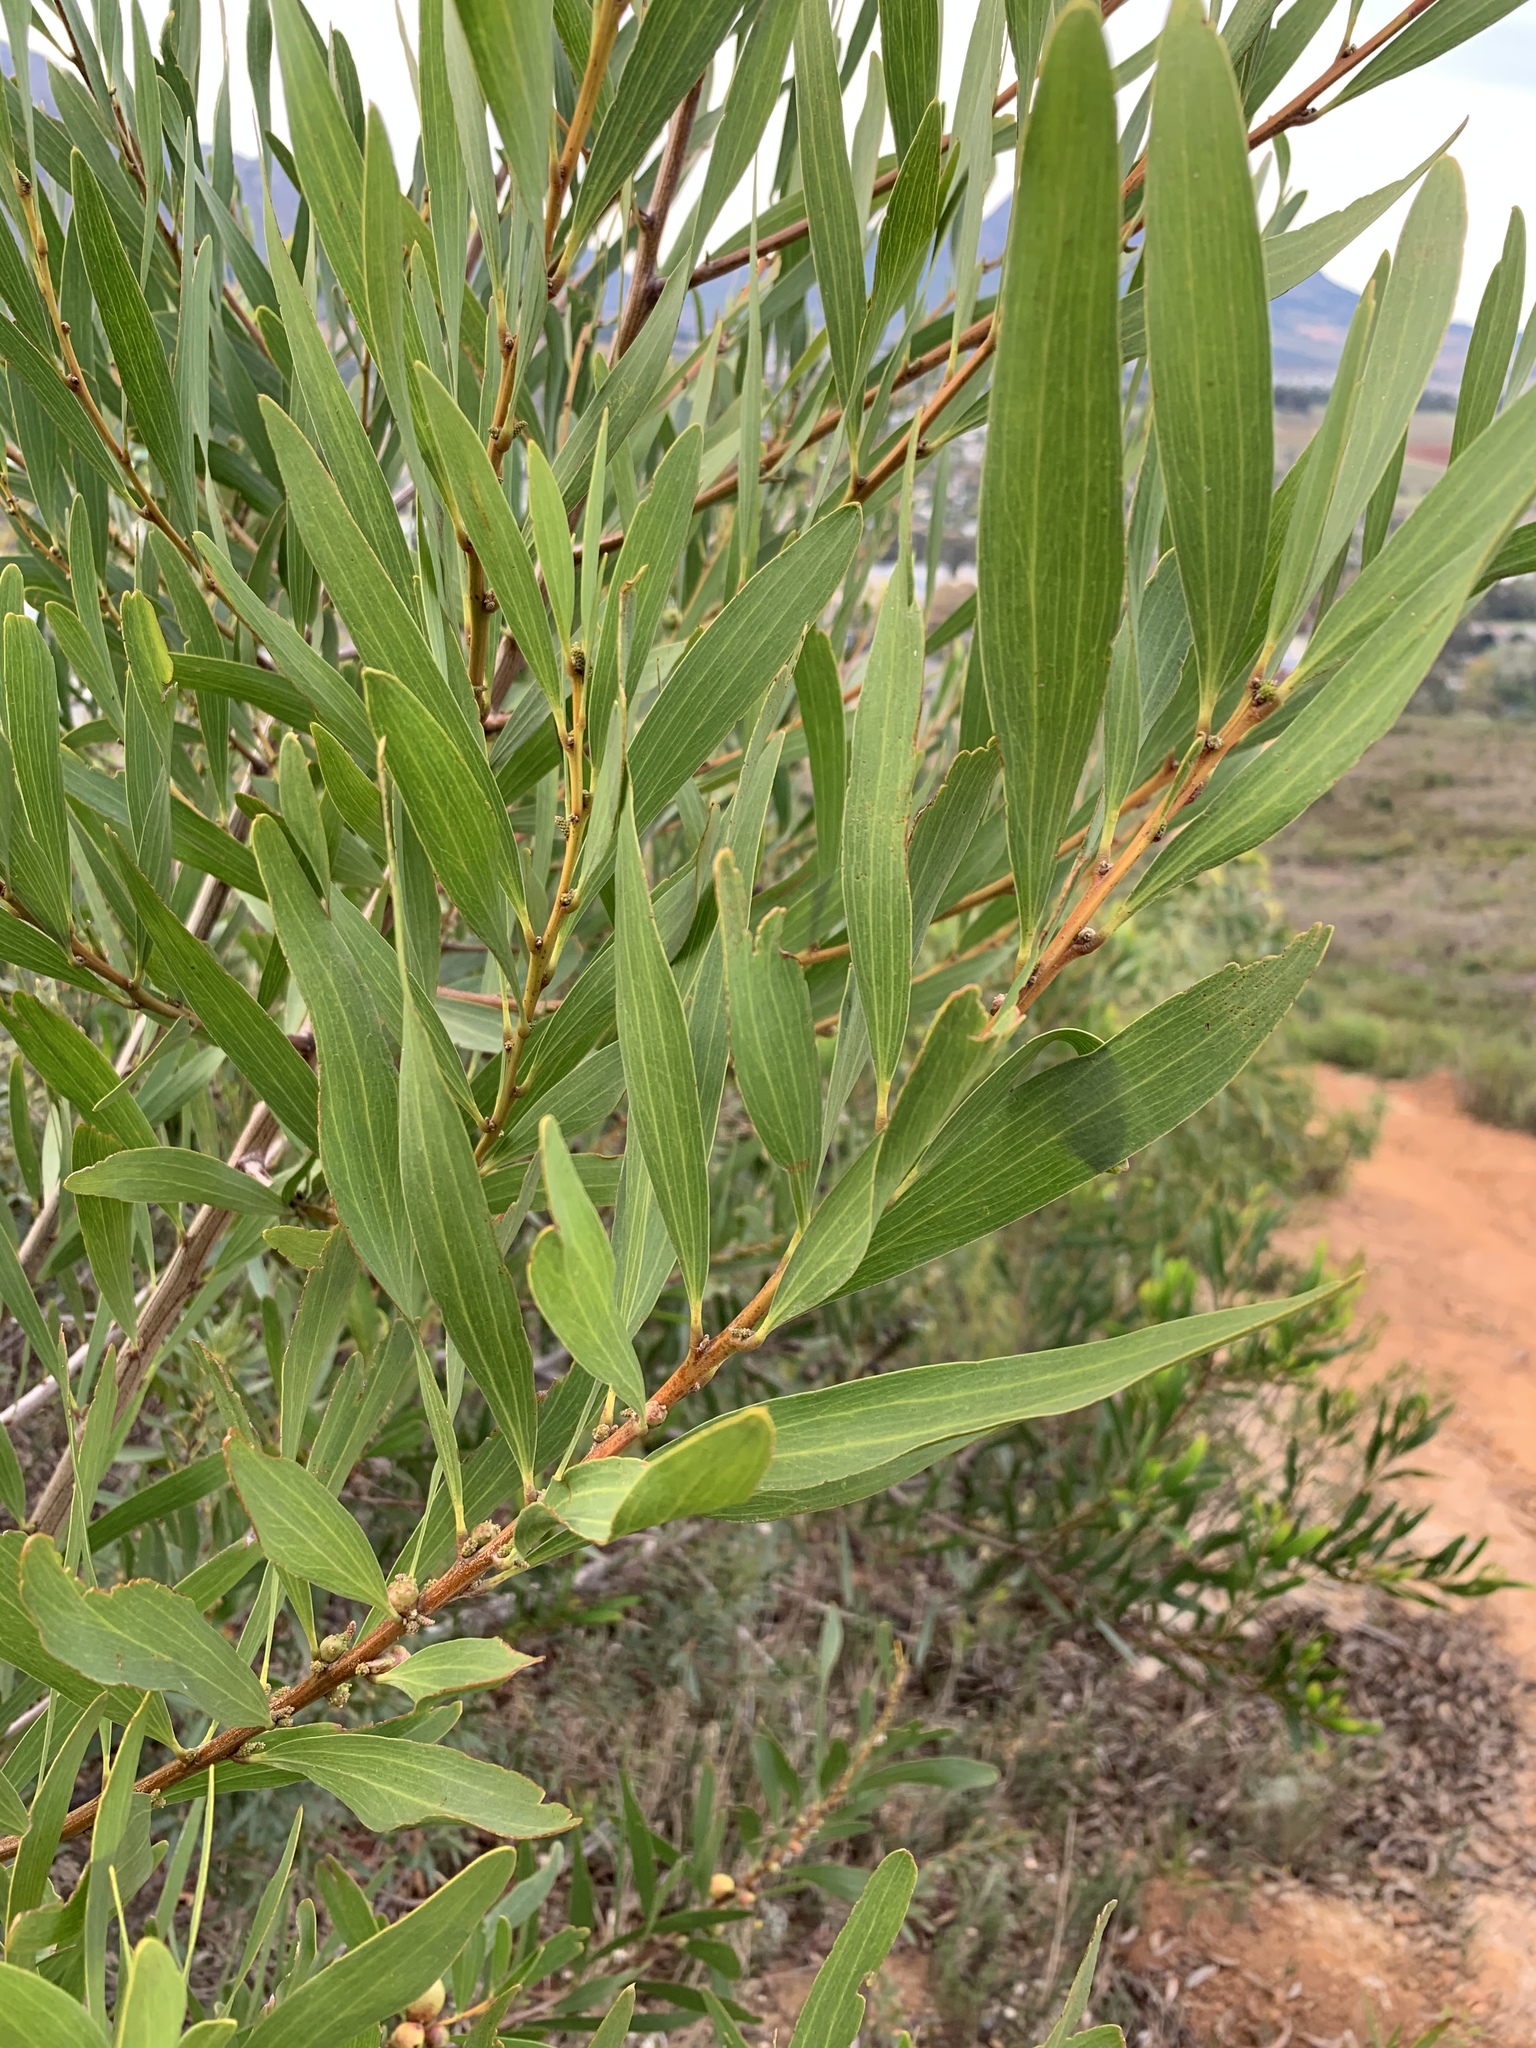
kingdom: Plantae
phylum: Tracheophyta
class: Magnoliopsida
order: Fabales
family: Fabaceae
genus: Acacia
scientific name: Acacia longifolia
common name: Sydney golden wattle
